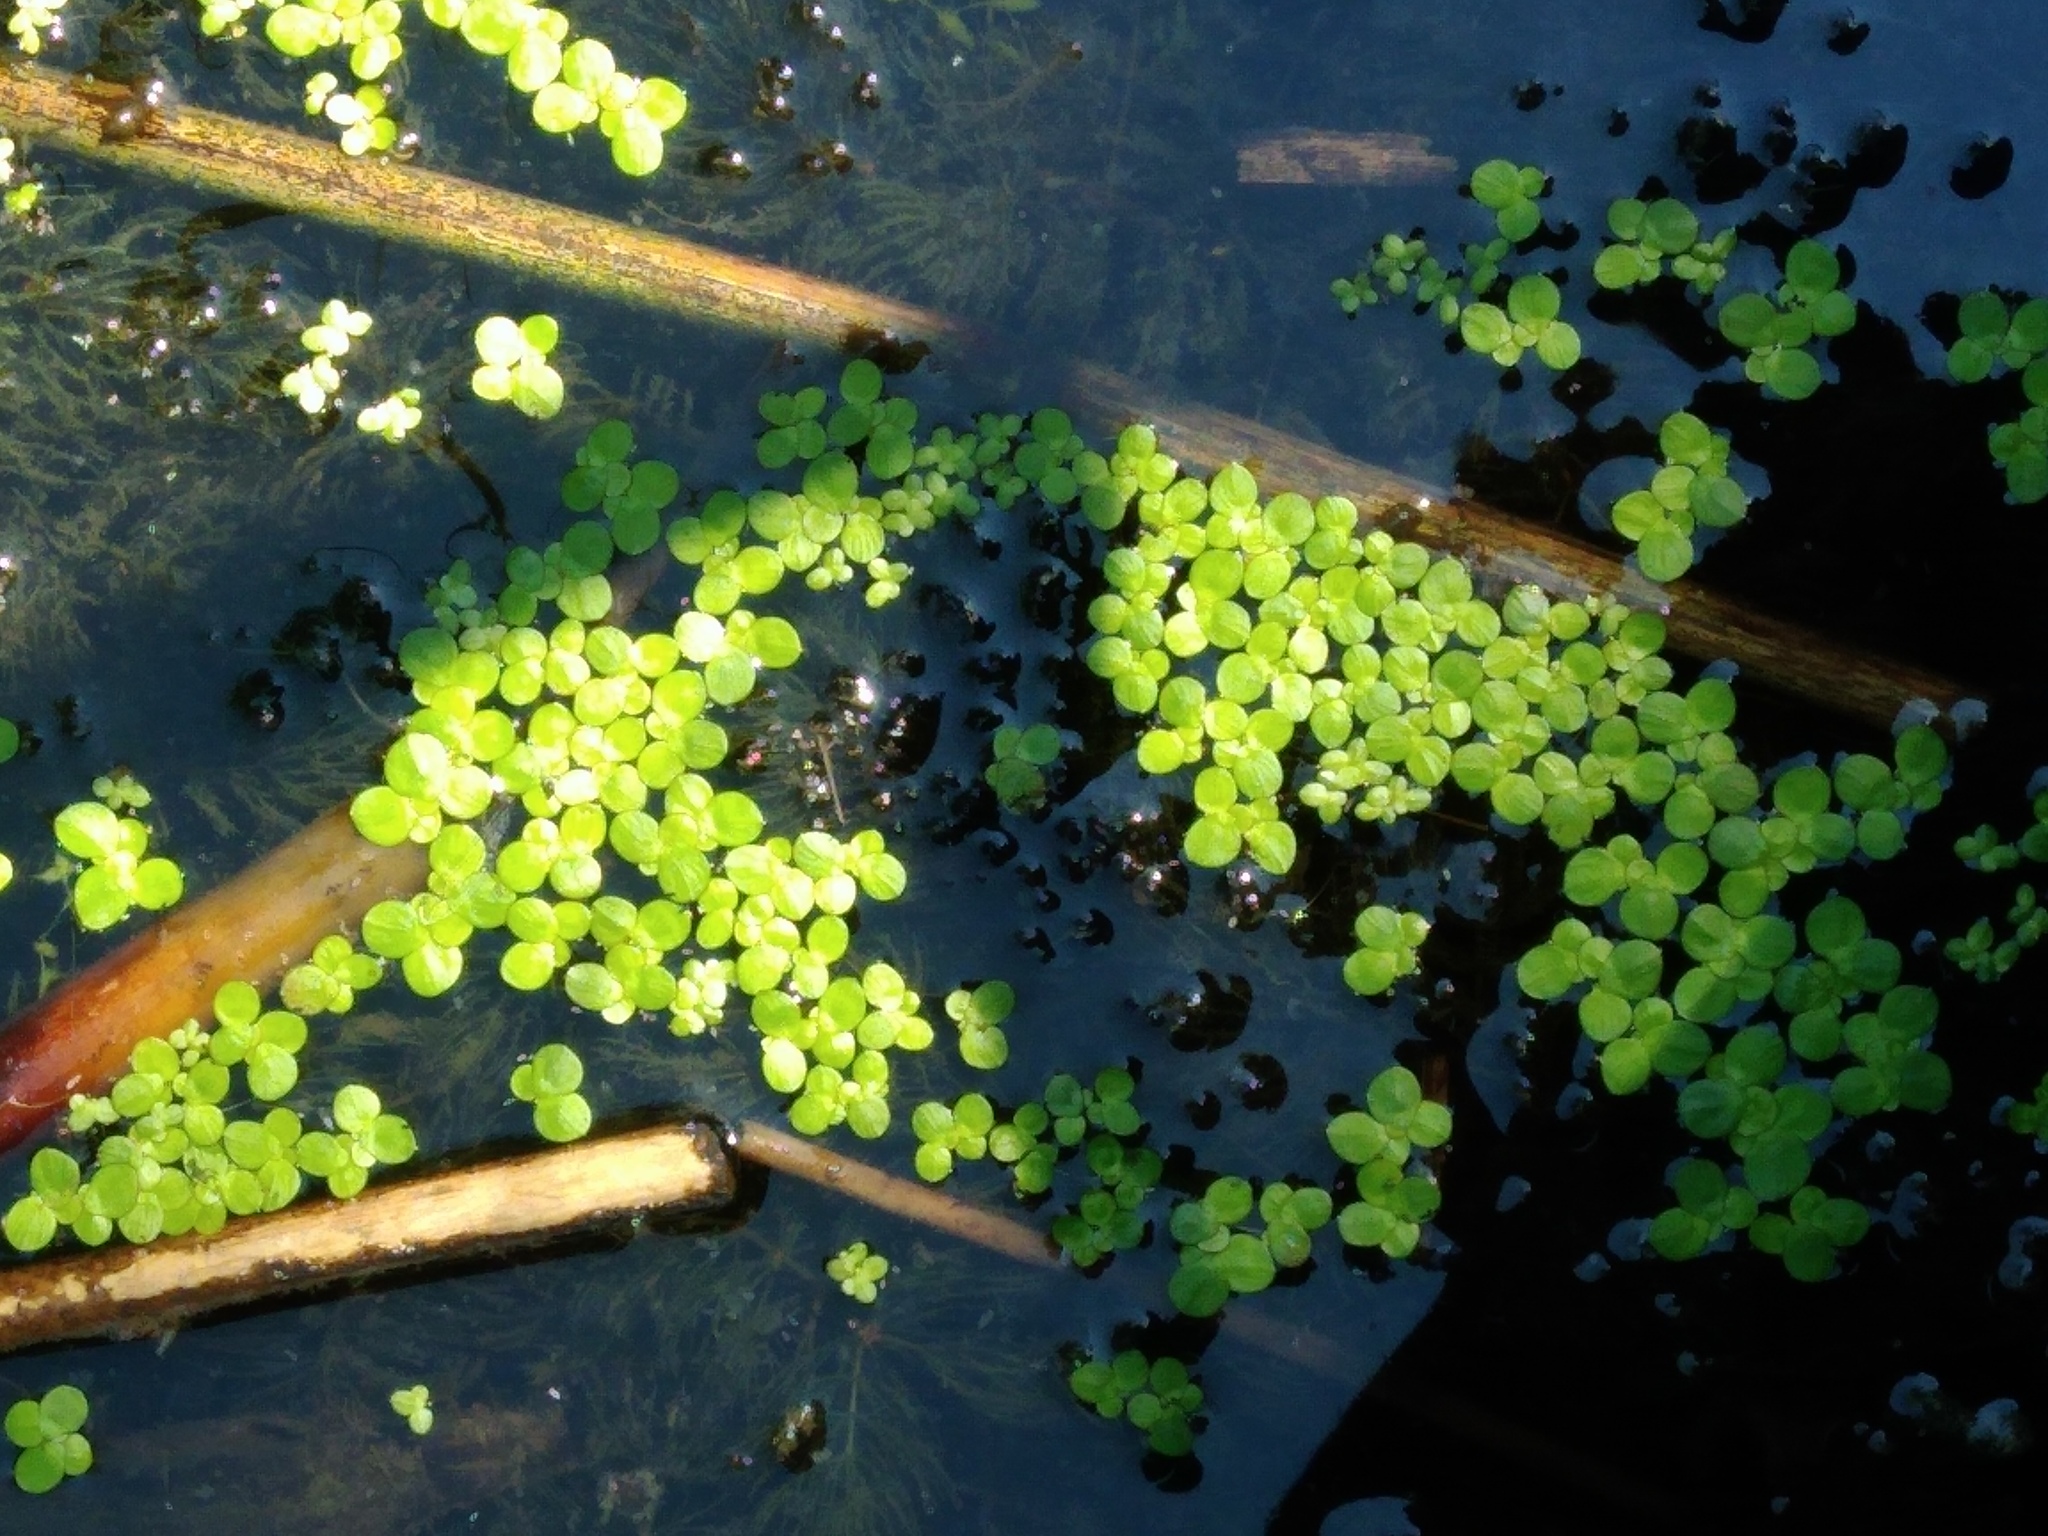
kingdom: Plantae
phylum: Tracheophyta
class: Liliopsida
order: Alismatales
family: Araceae
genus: Lemna
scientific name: Lemna minor
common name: Common duckweed
